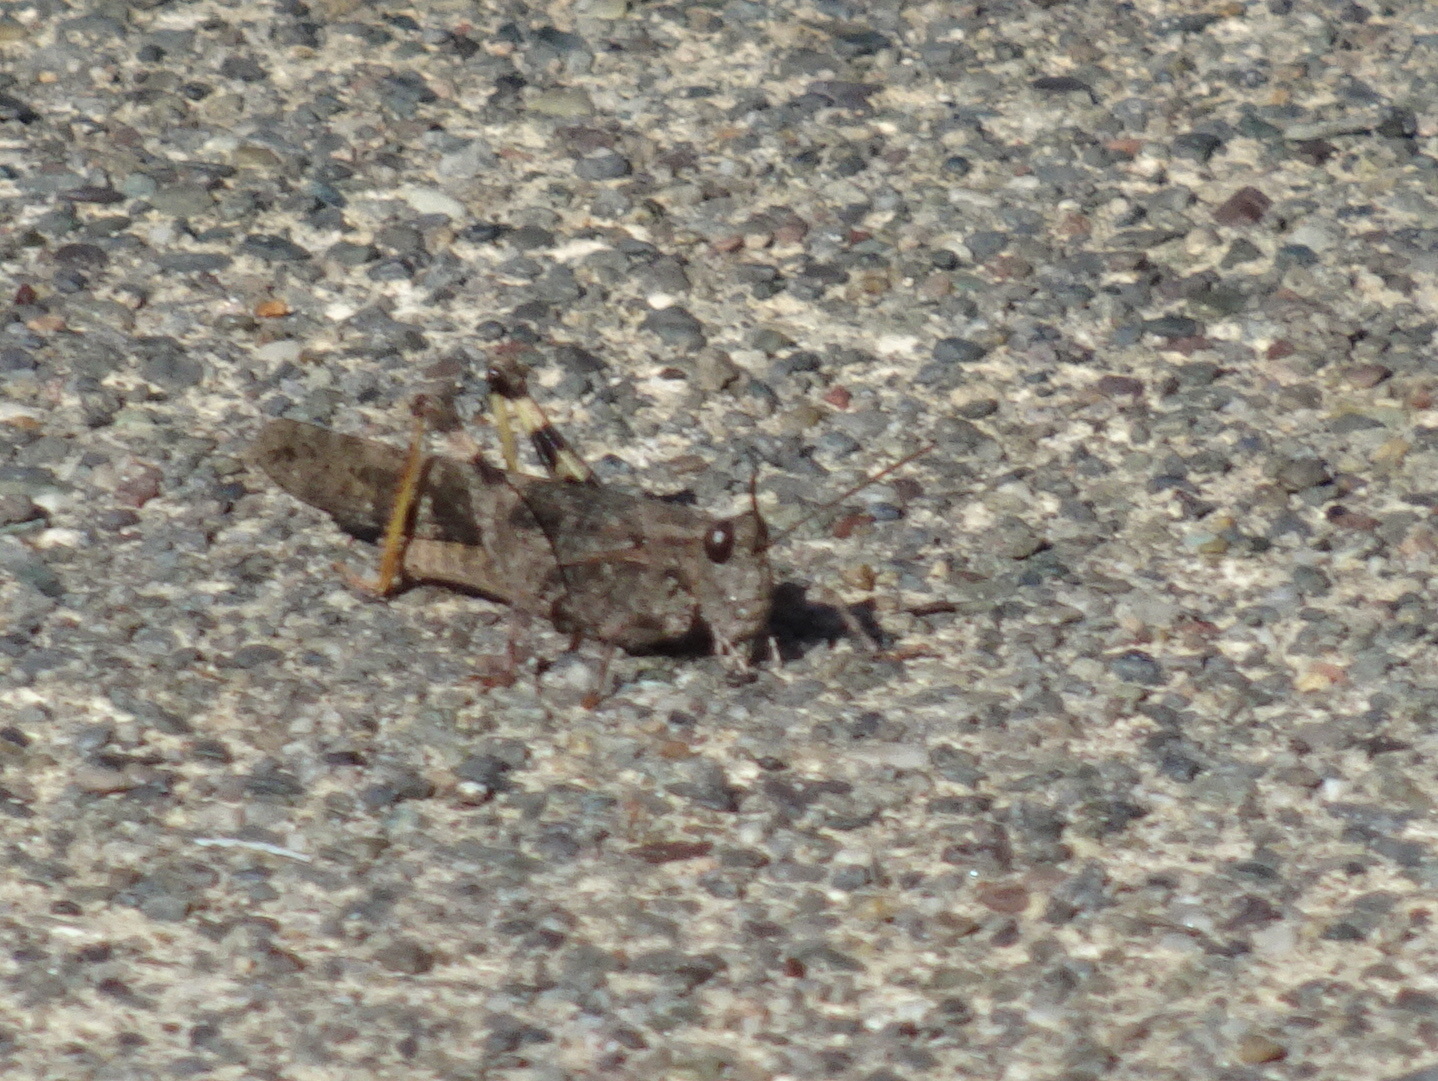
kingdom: Animalia
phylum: Arthropoda
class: Insecta
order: Orthoptera
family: Acrididae
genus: Trimerotropis
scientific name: Trimerotropis pallidipennis
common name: Pallid-winged grasshopper
